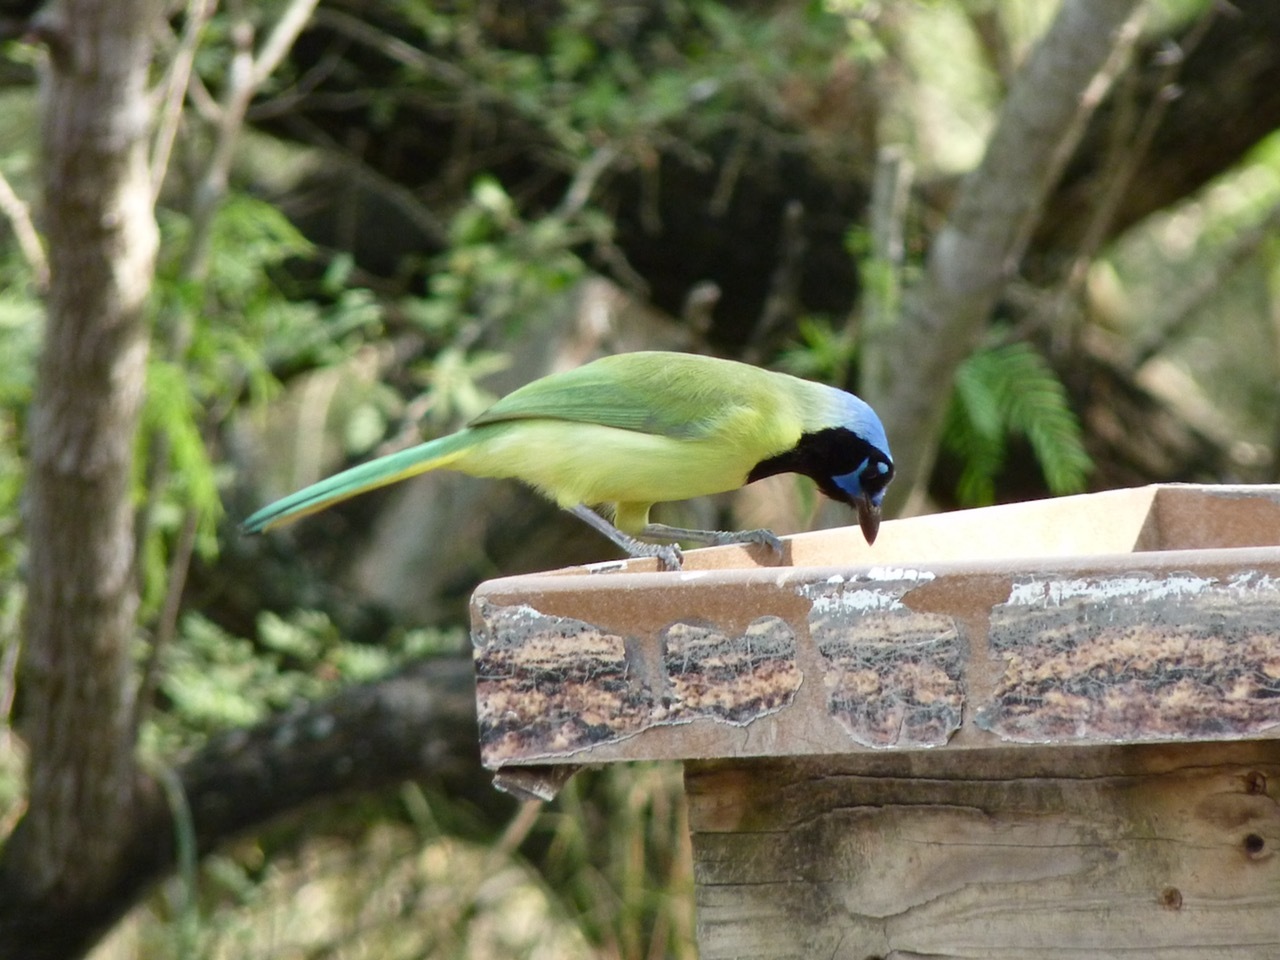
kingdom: Animalia
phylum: Chordata
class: Aves
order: Passeriformes
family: Corvidae
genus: Cyanocorax
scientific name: Cyanocorax yncas
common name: Green jay
